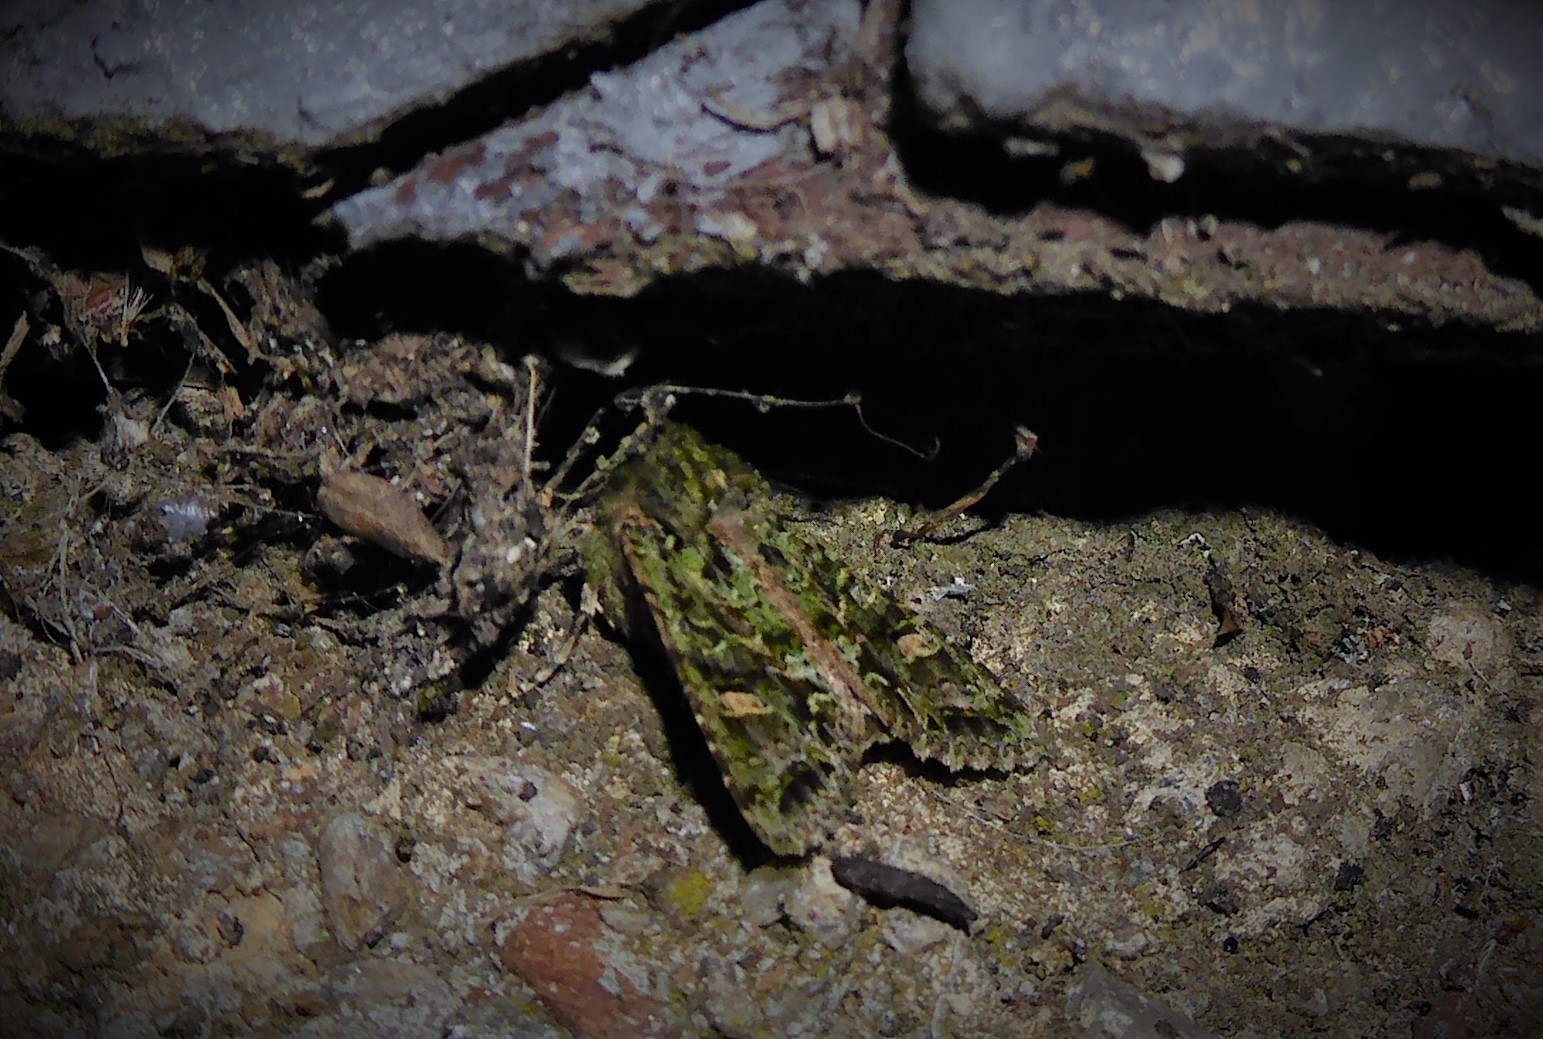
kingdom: Animalia
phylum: Arthropoda
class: Insecta
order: Lepidoptera
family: Noctuidae
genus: Ichneutica
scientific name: Ichneutica
